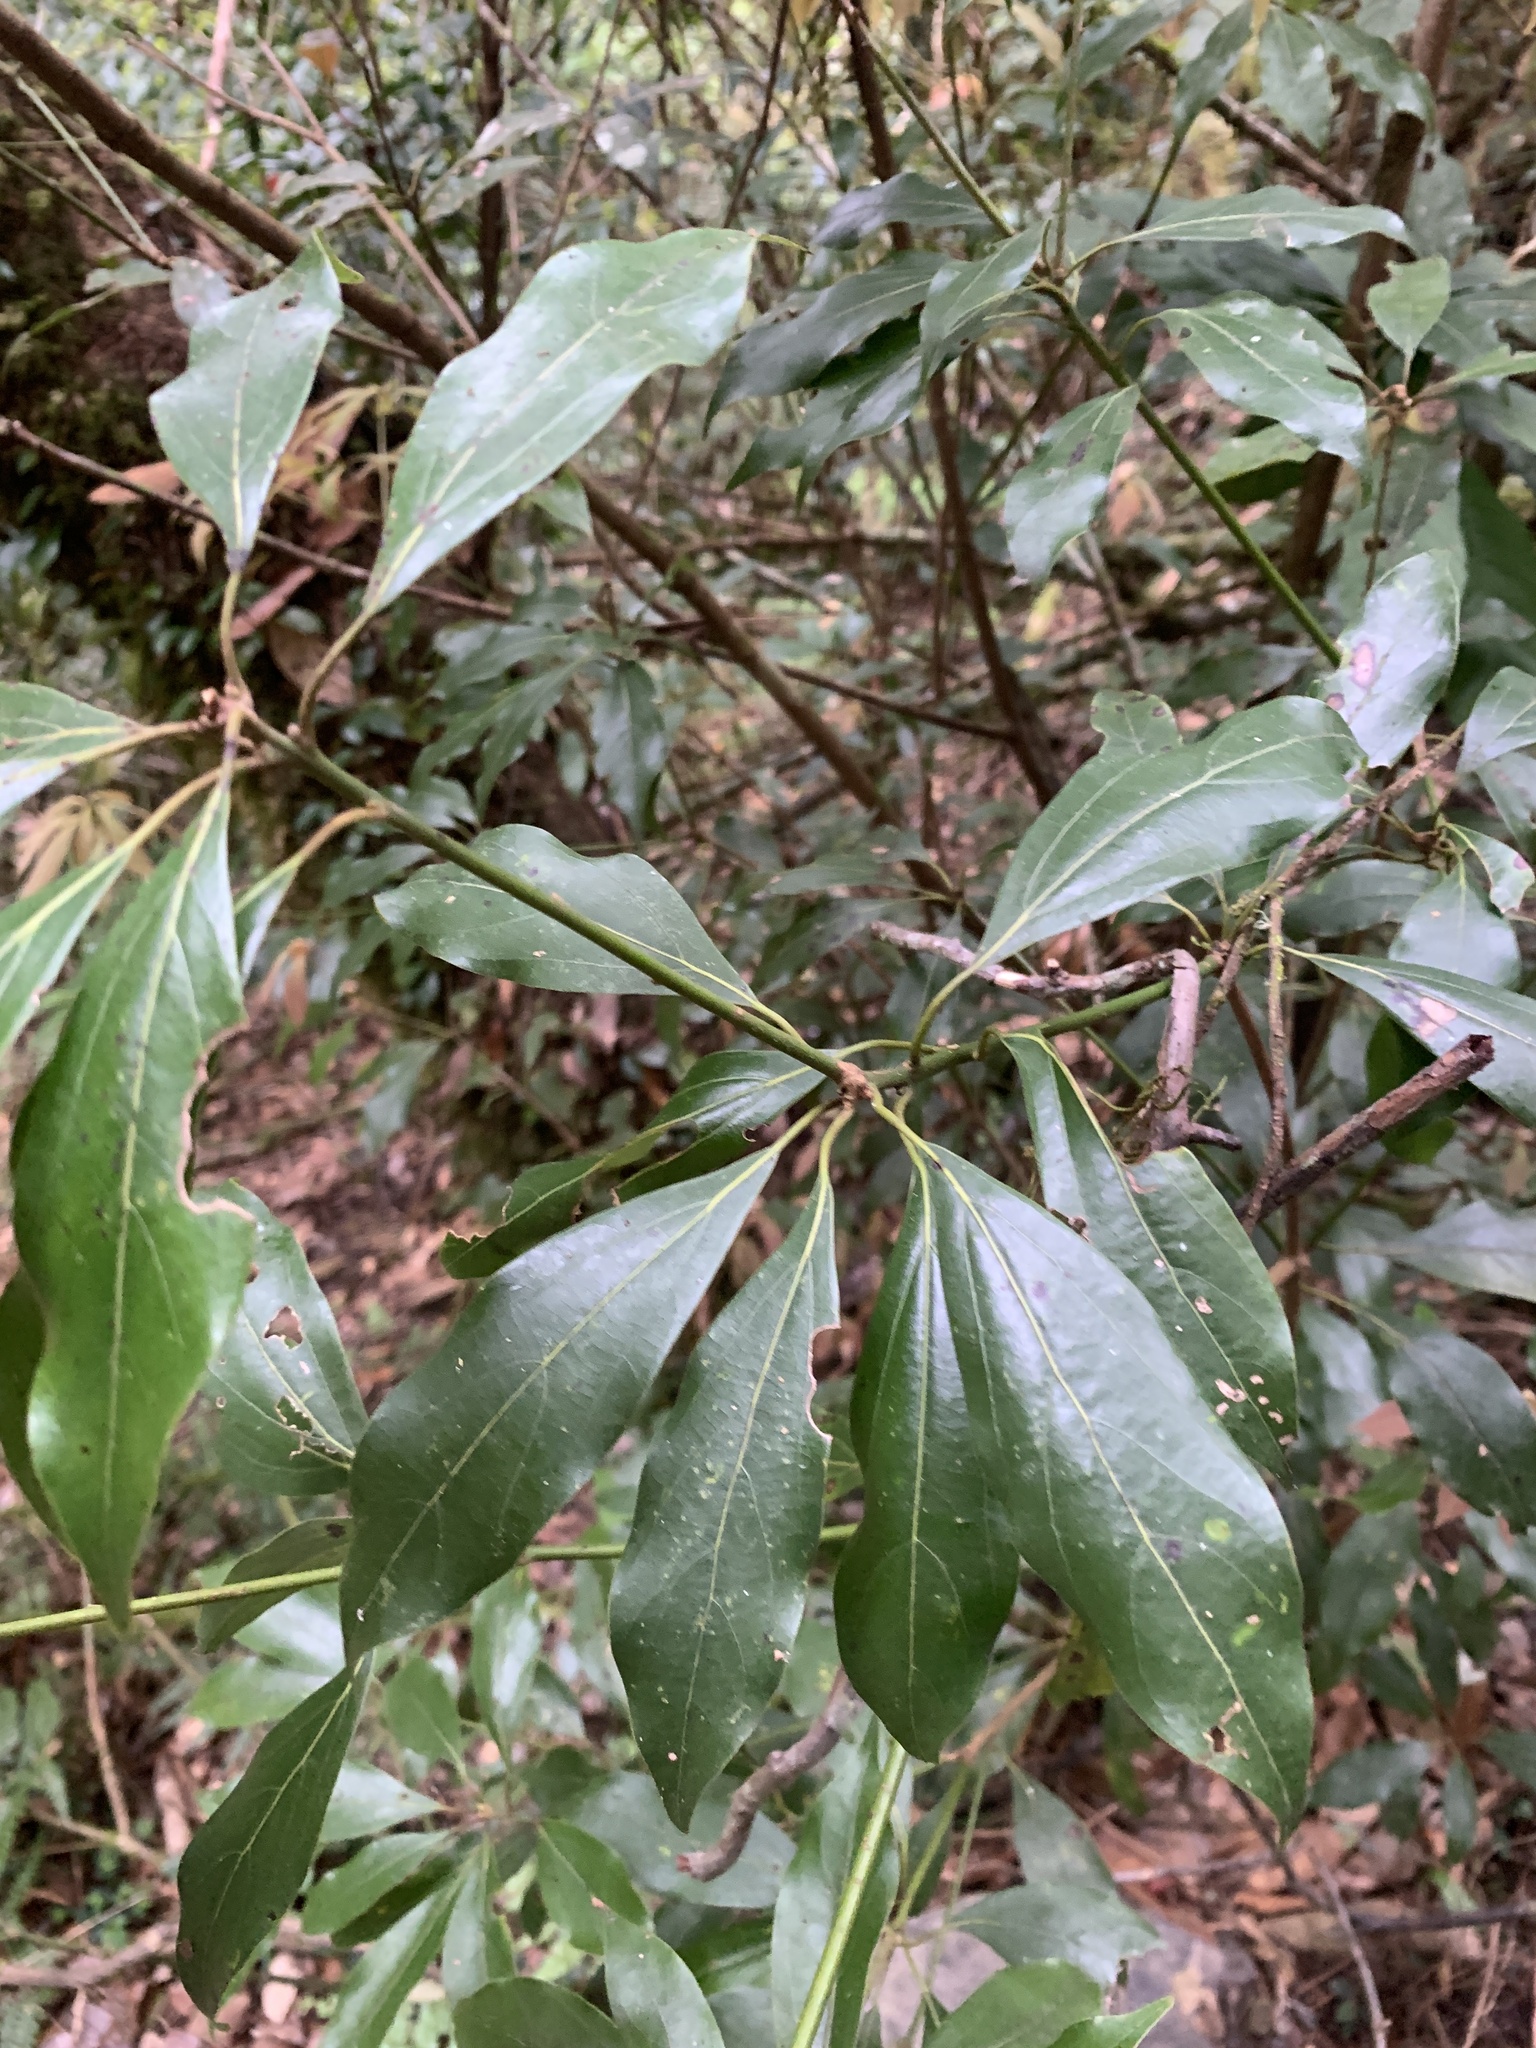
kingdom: Plantae
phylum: Tracheophyta
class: Magnoliopsida
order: Laurales
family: Lauraceae
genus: Neolitsea
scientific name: Neolitsea variabillima
